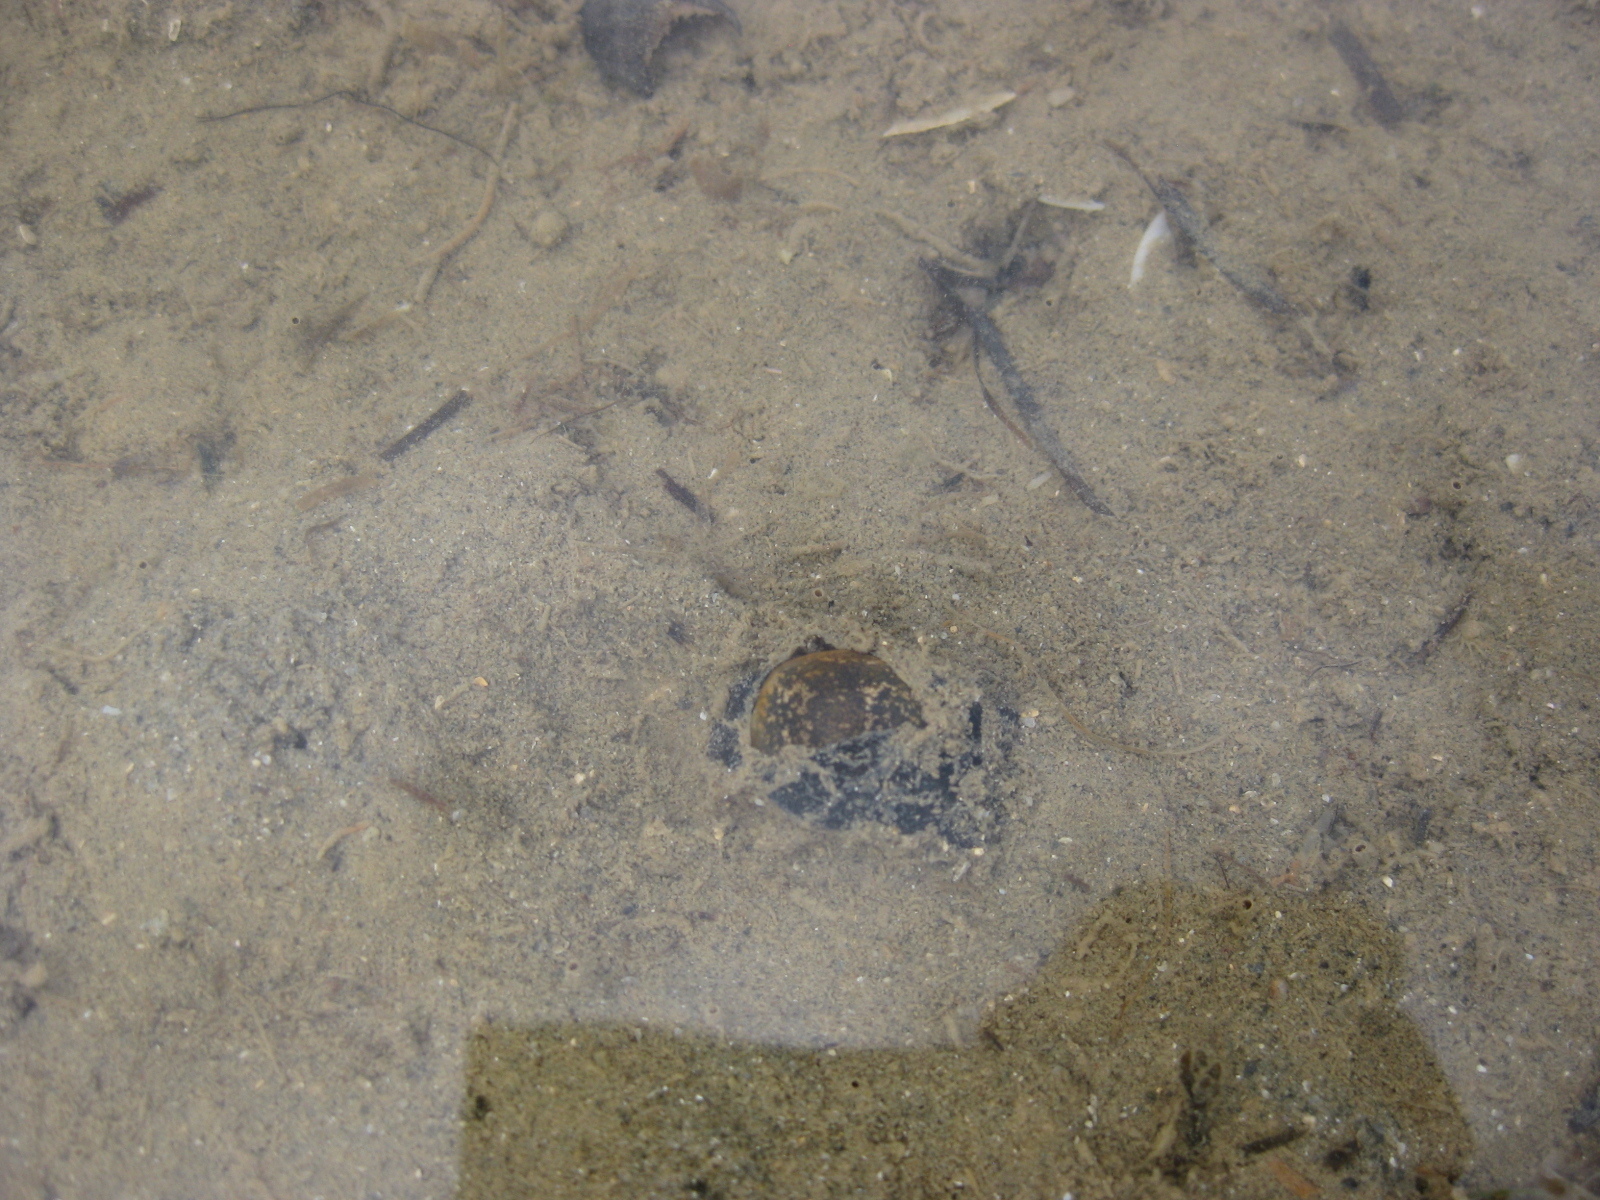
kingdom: Animalia
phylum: Mollusca
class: Gastropoda
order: Cephalaspidea
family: Haminoeidae
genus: Papawera
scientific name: Papawera zelandiae
